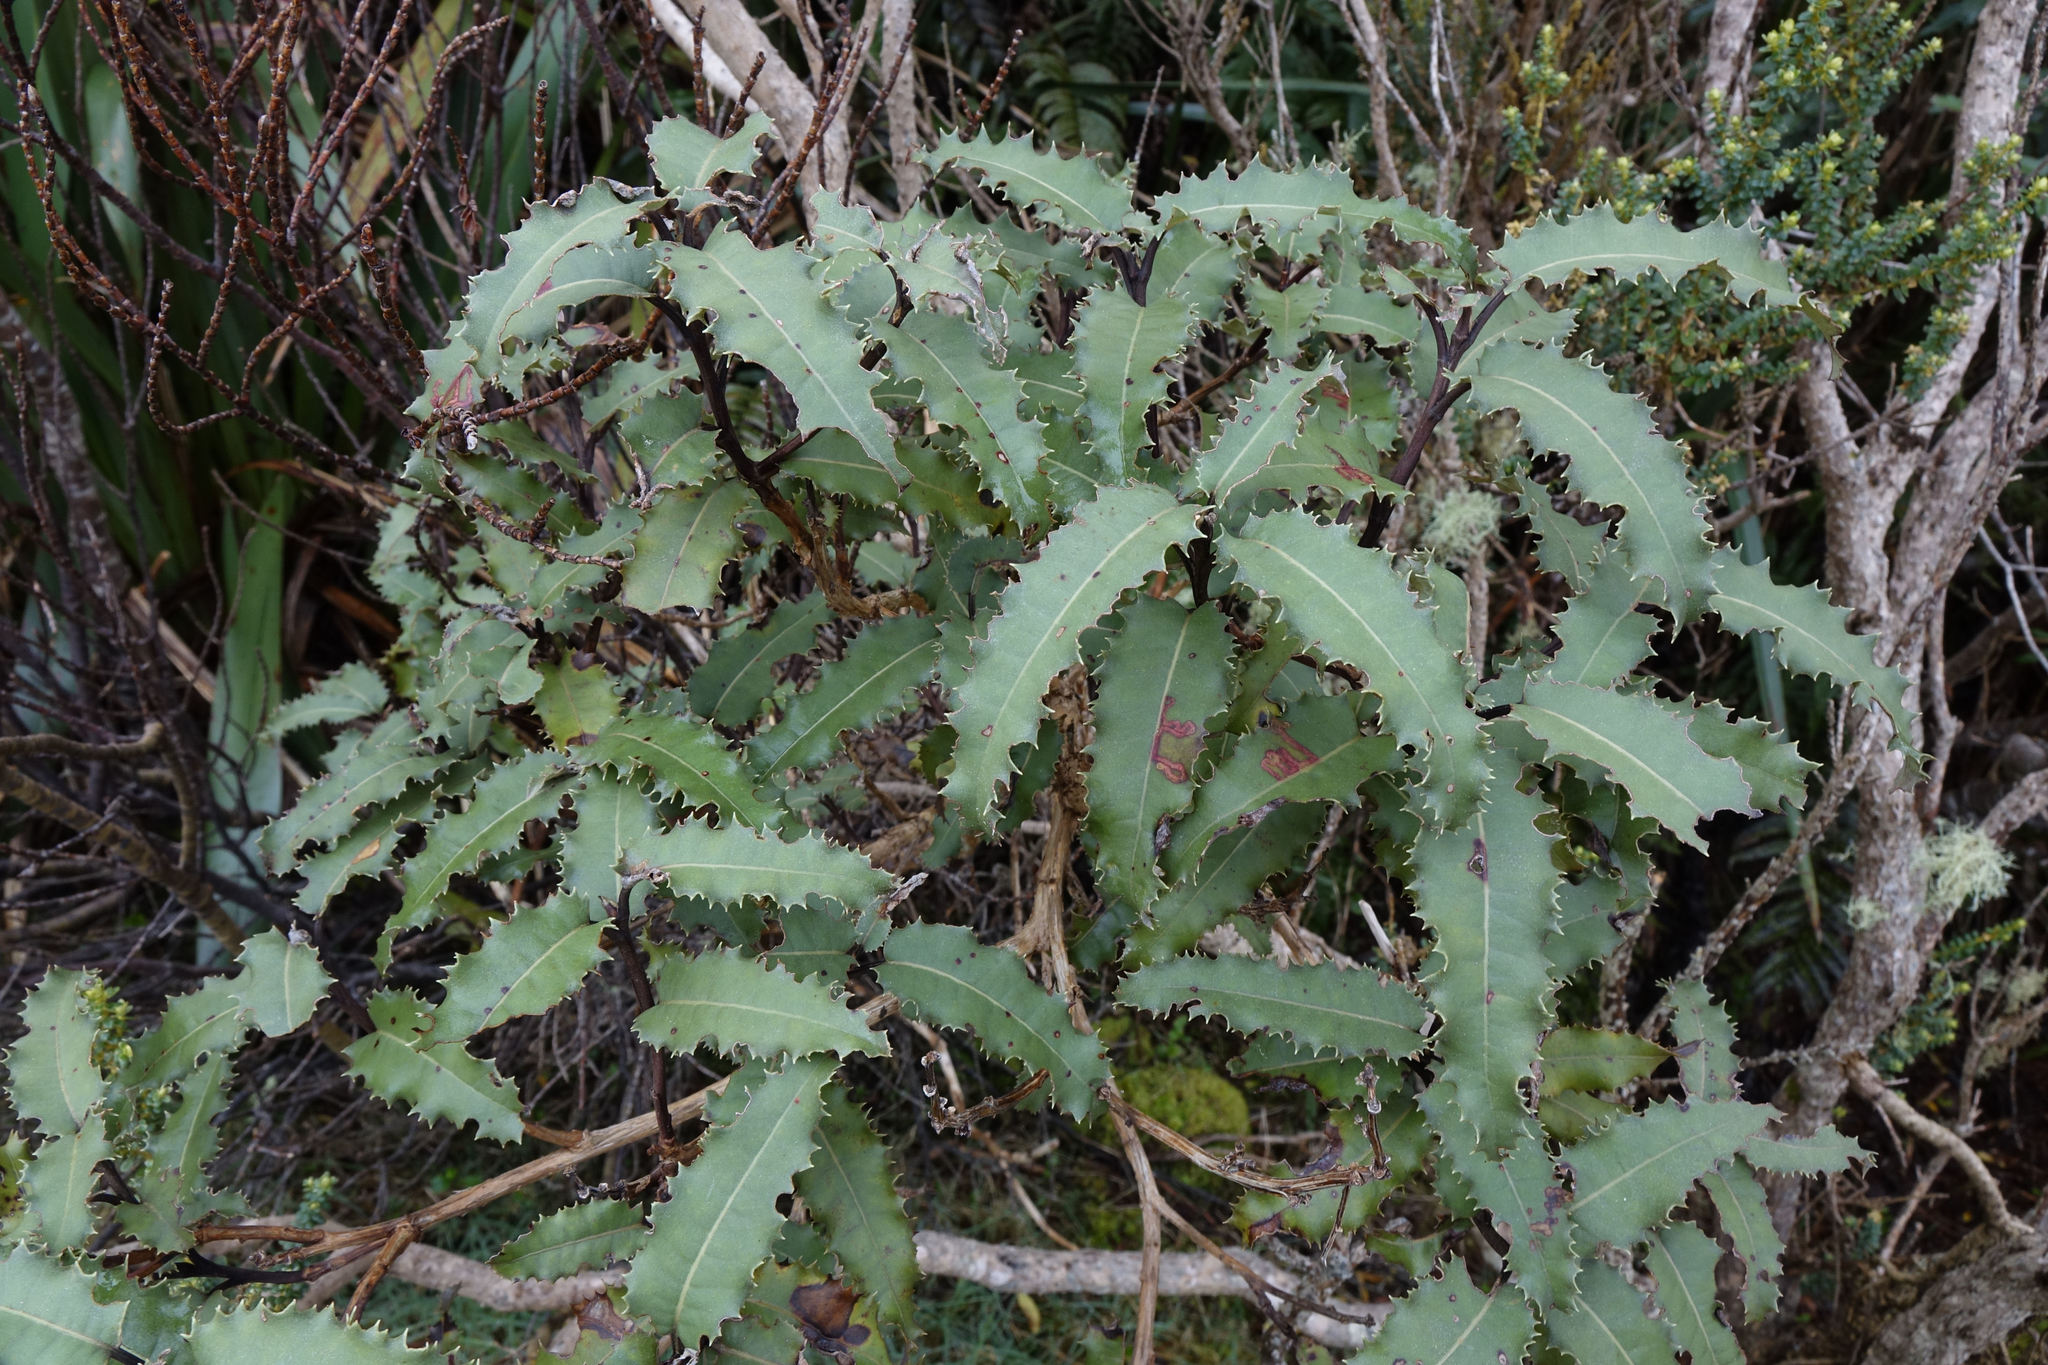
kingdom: Plantae
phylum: Tracheophyta
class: Magnoliopsida
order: Asterales
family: Asteraceae
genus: Olearia
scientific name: Olearia ilicifolia
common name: Maori-holly
